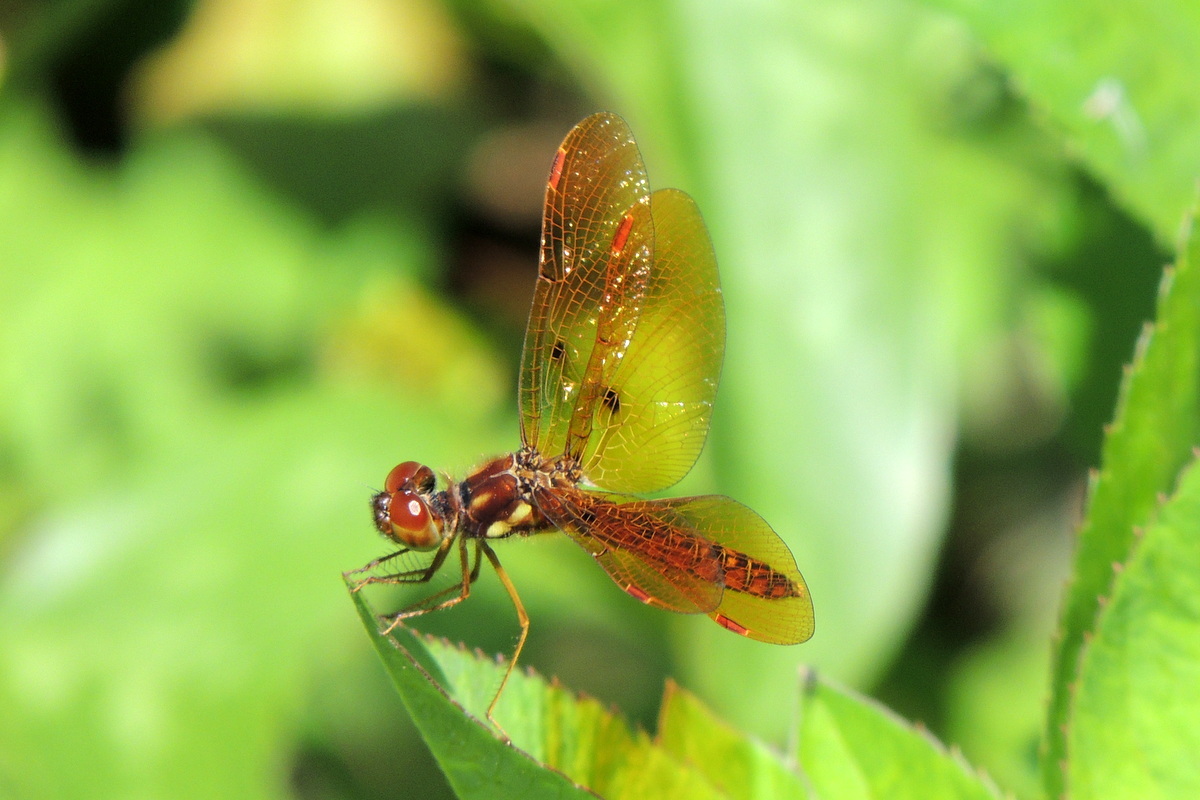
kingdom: Animalia
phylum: Arthropoda
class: Insecta
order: Odonata
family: Libellulidae
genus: Perithemis
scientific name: Perithemis tenera
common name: Eastern amberwing
